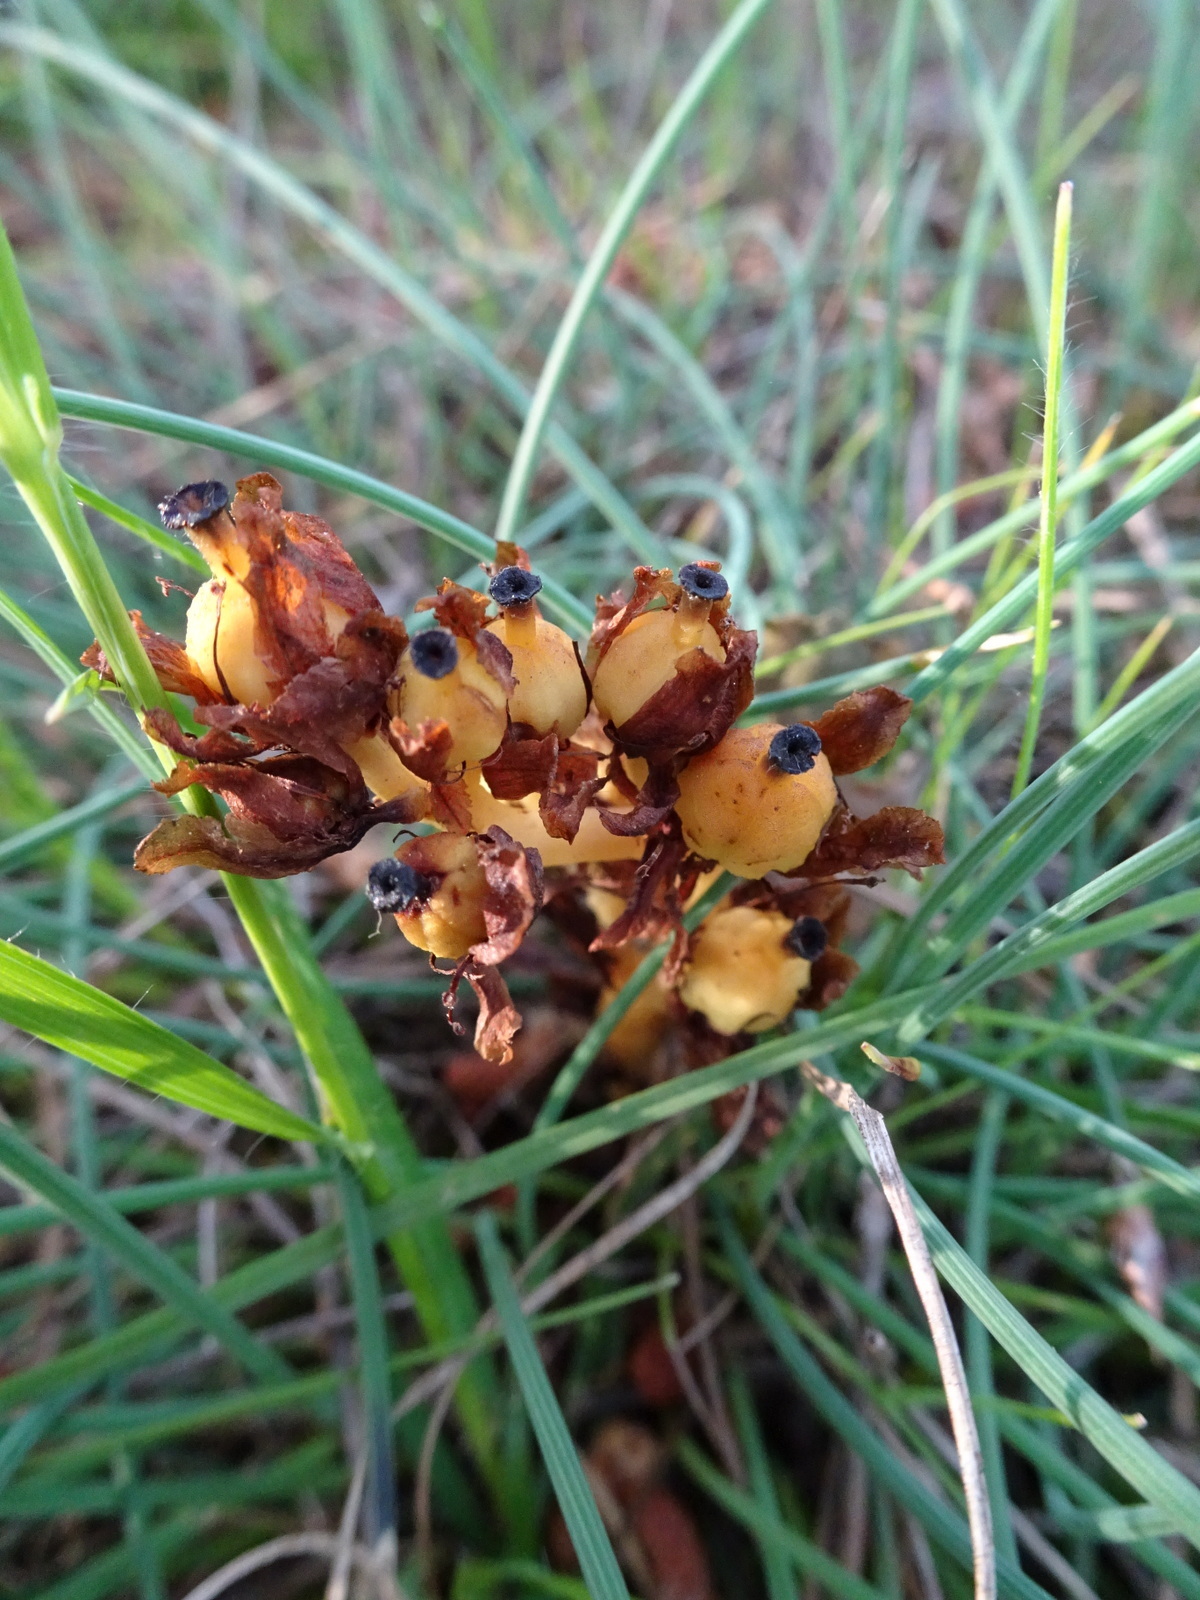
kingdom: Plantae
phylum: Tracheophyta
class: Magnoliopsida
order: Ericales
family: Ericaceae
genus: Hypopitys
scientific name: Hypopitys monotropa
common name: Yellow bird's-nest
